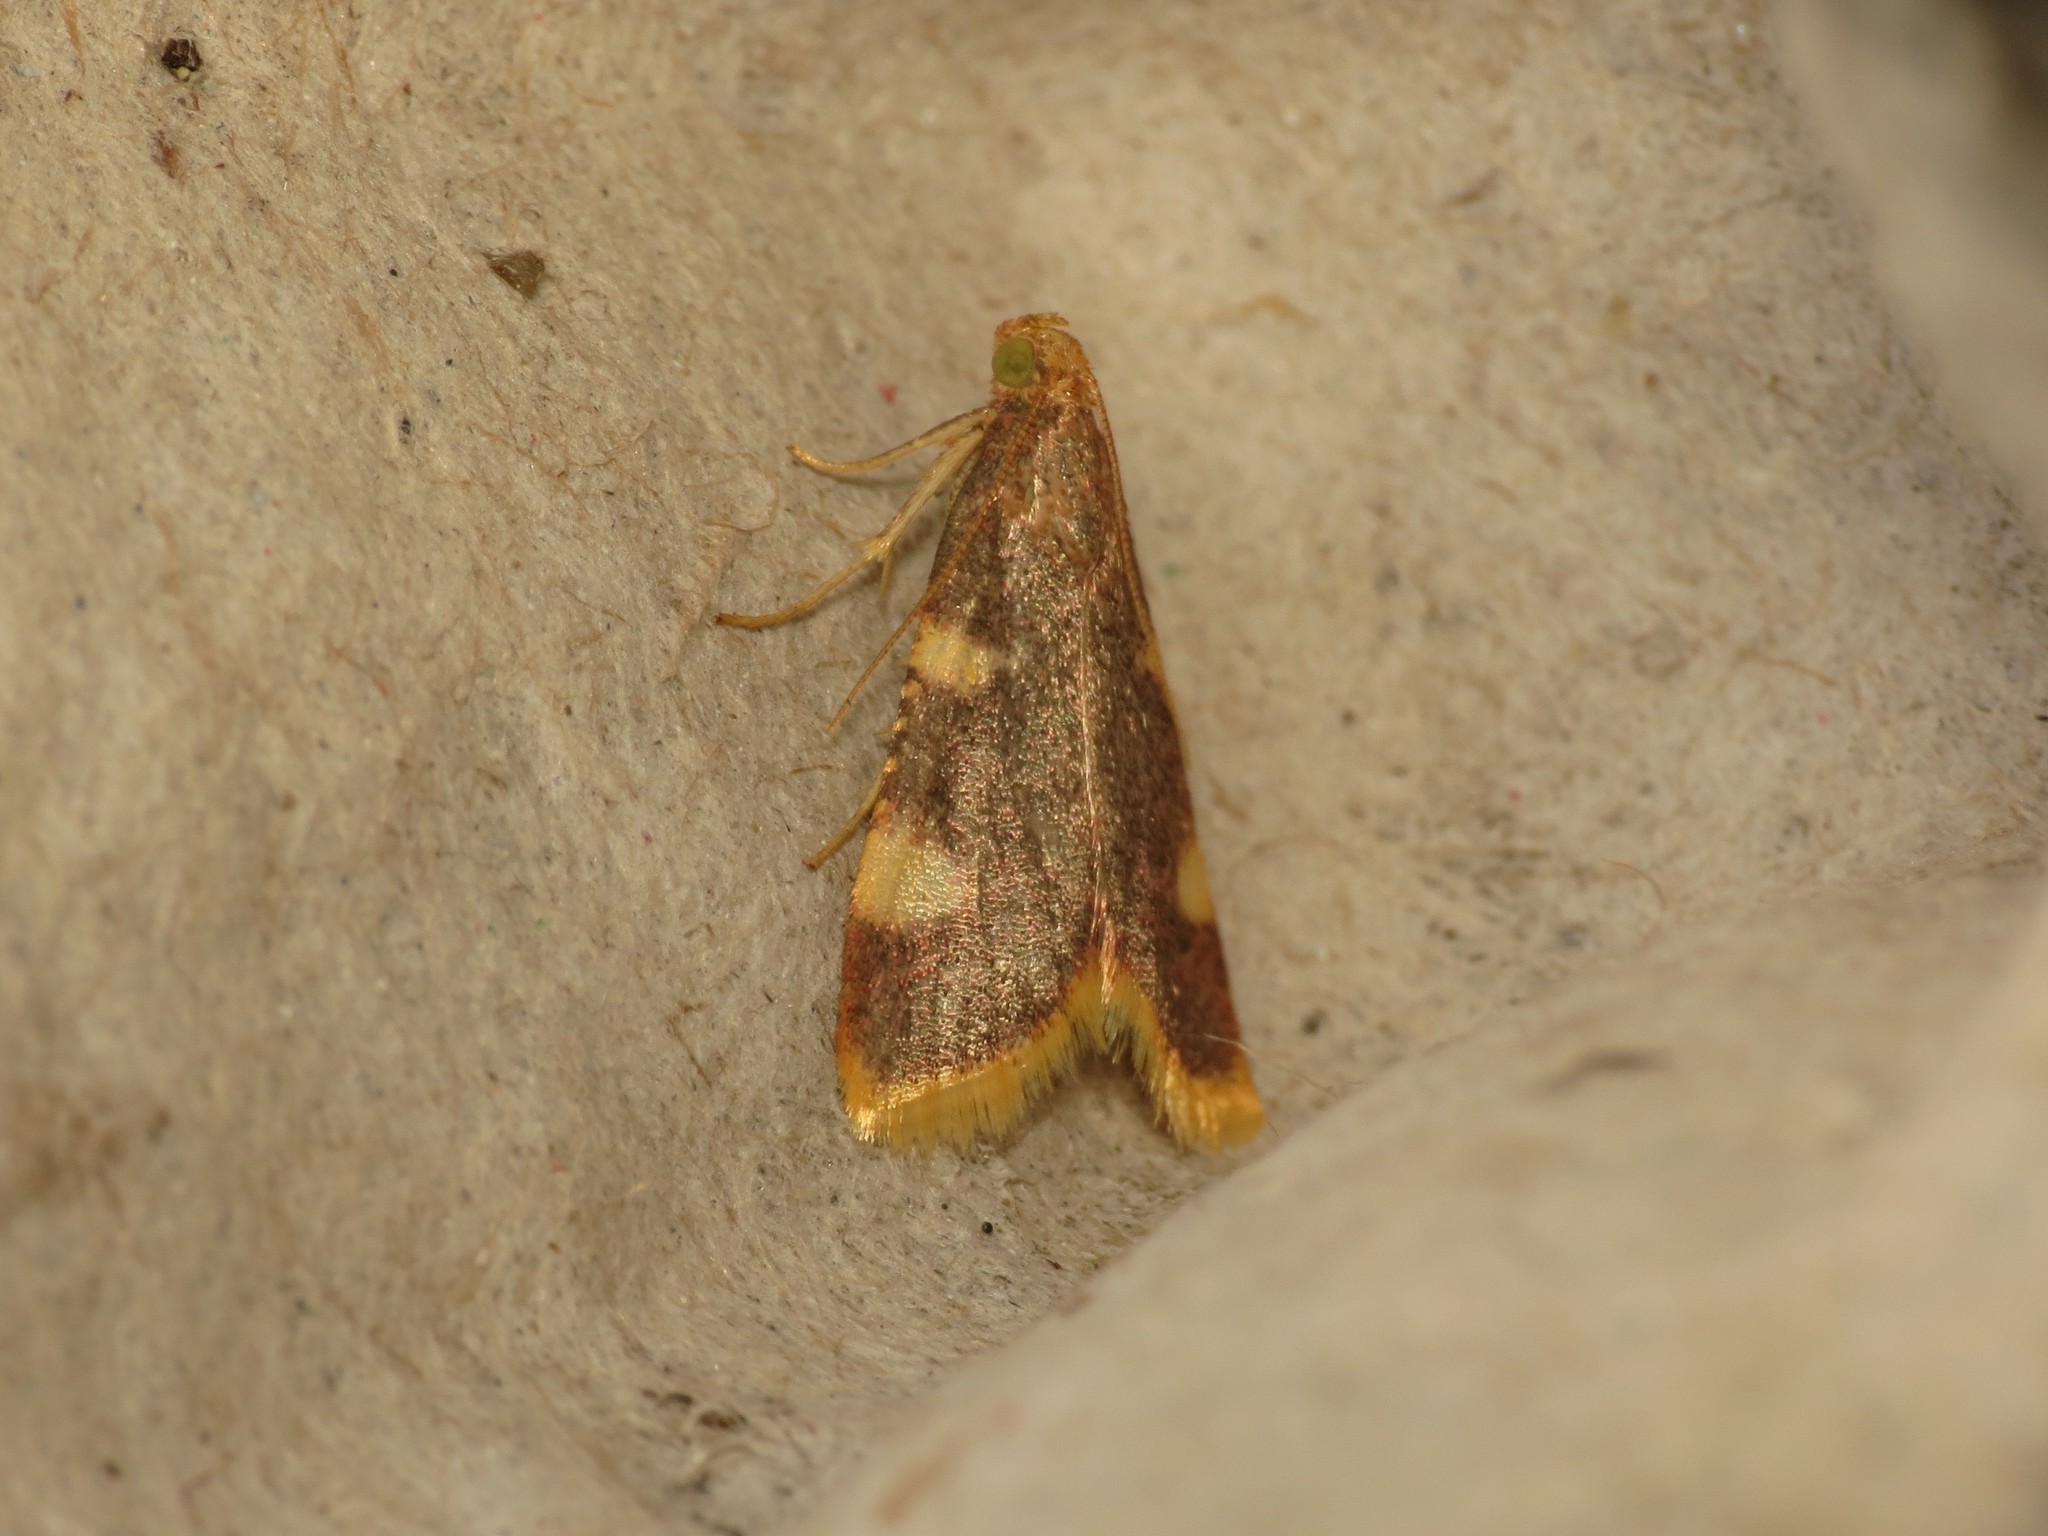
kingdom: Animalia
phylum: Arthropoda
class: Insecta
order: Lepidoptera
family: Pyralidae
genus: Hypsopygia
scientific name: Hypsopygia costalis
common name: Gold triangle
